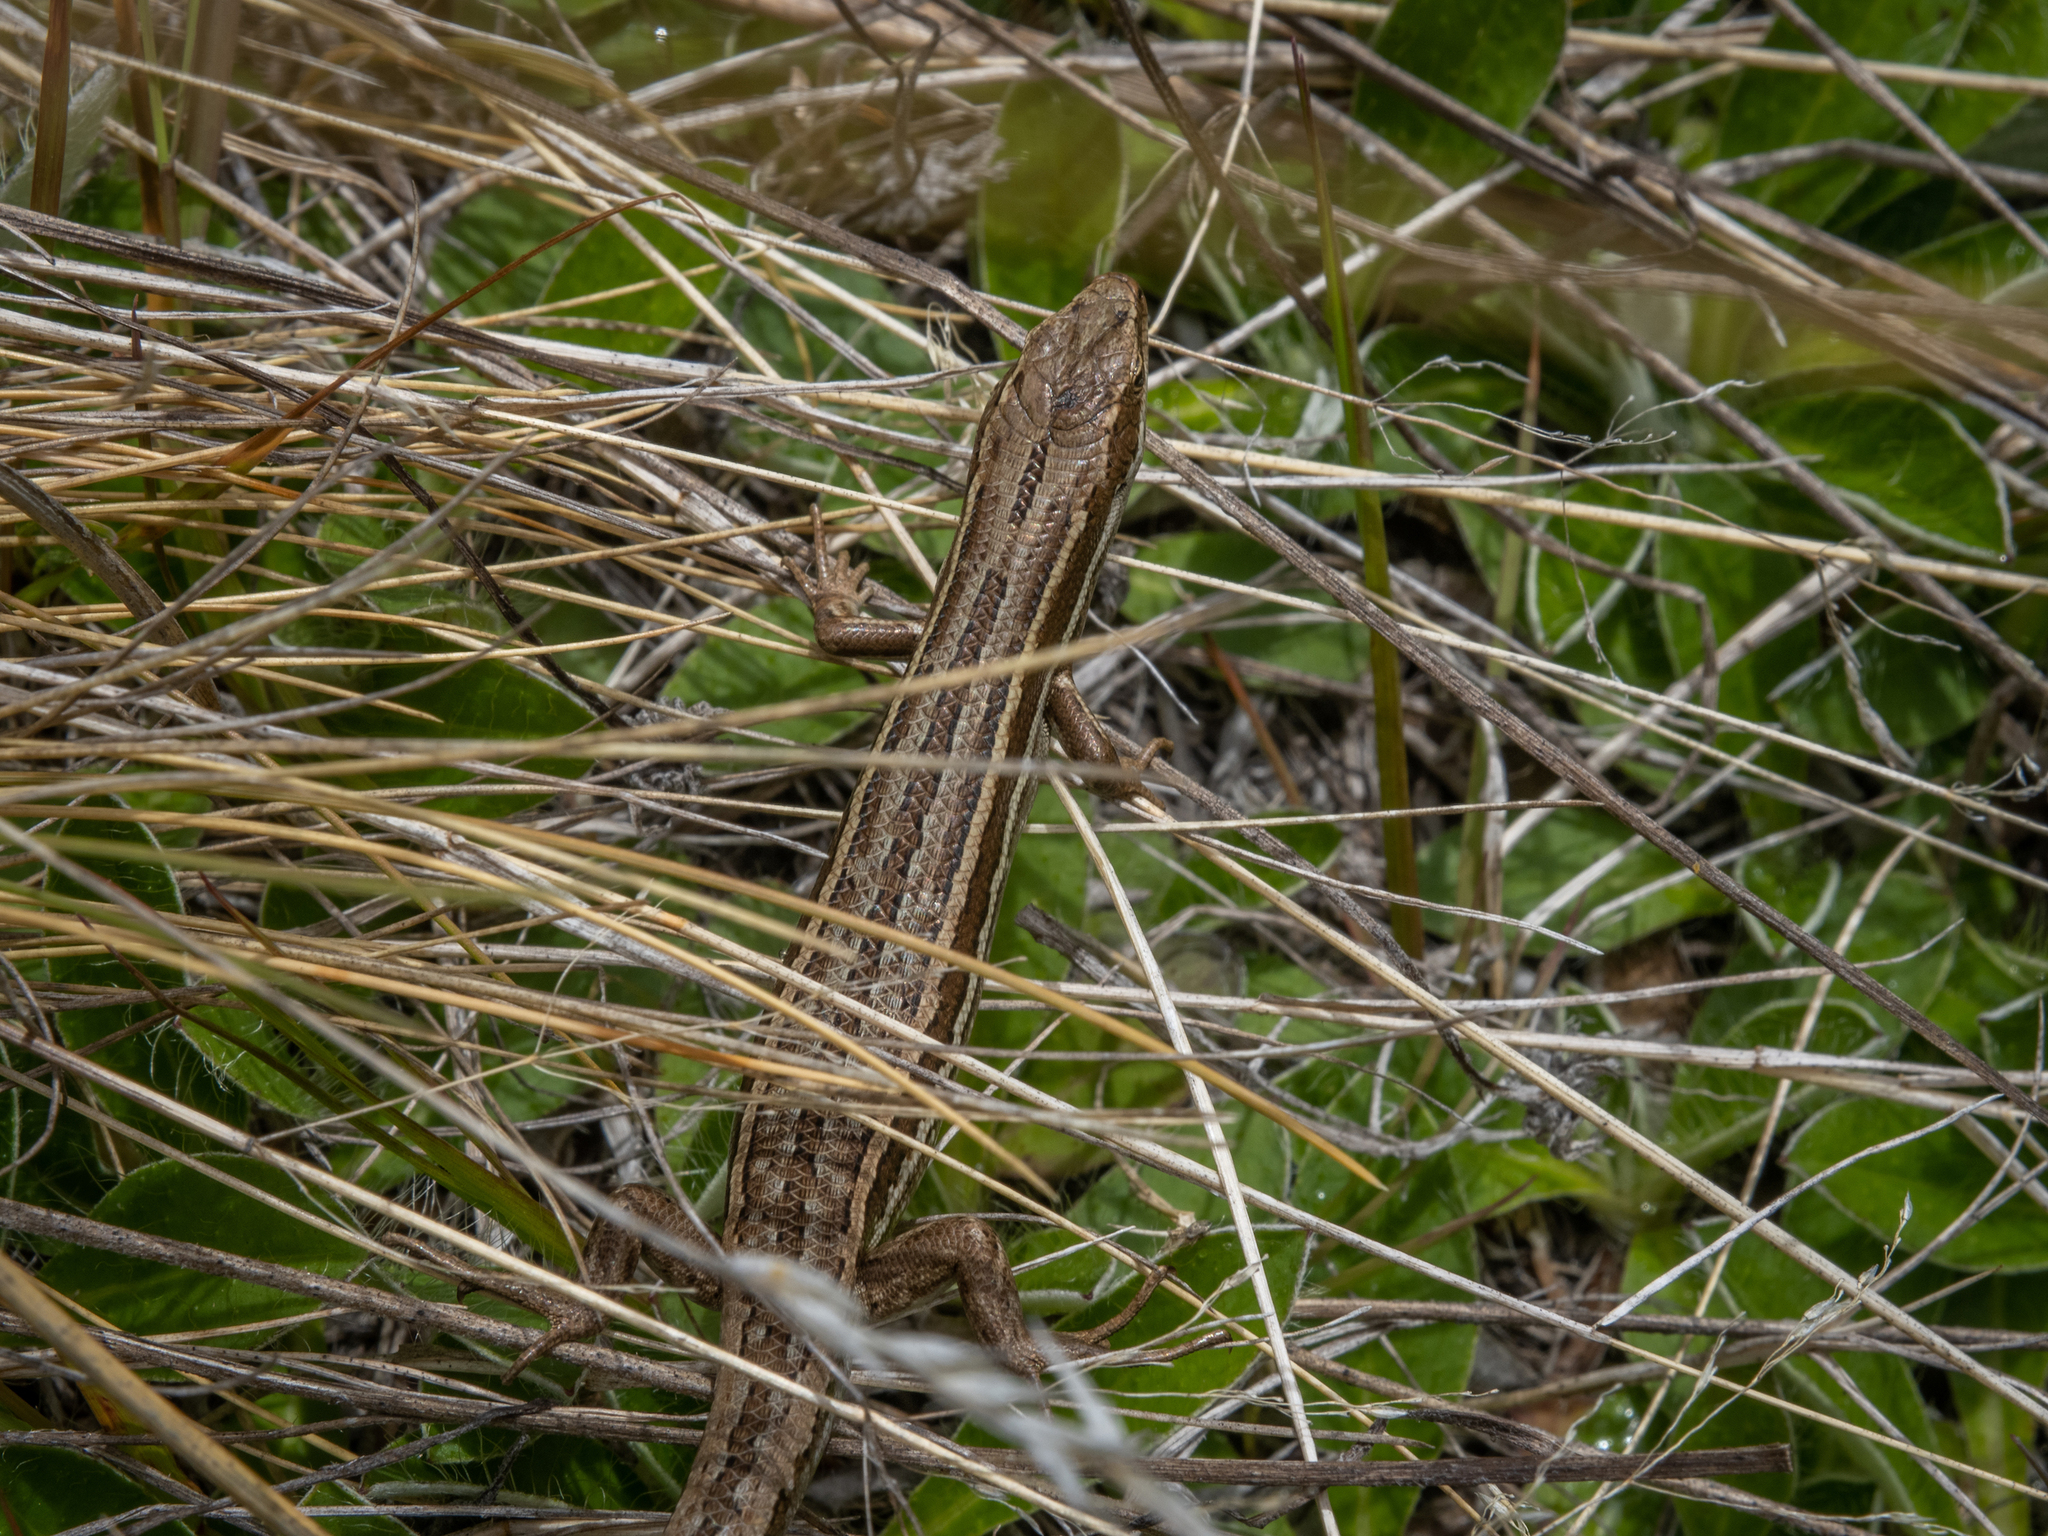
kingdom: Animalia
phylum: Chordata
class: Squamata
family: Scincidae
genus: Oligosoma
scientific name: Oligosoma maccanni
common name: Mccann’s skink
